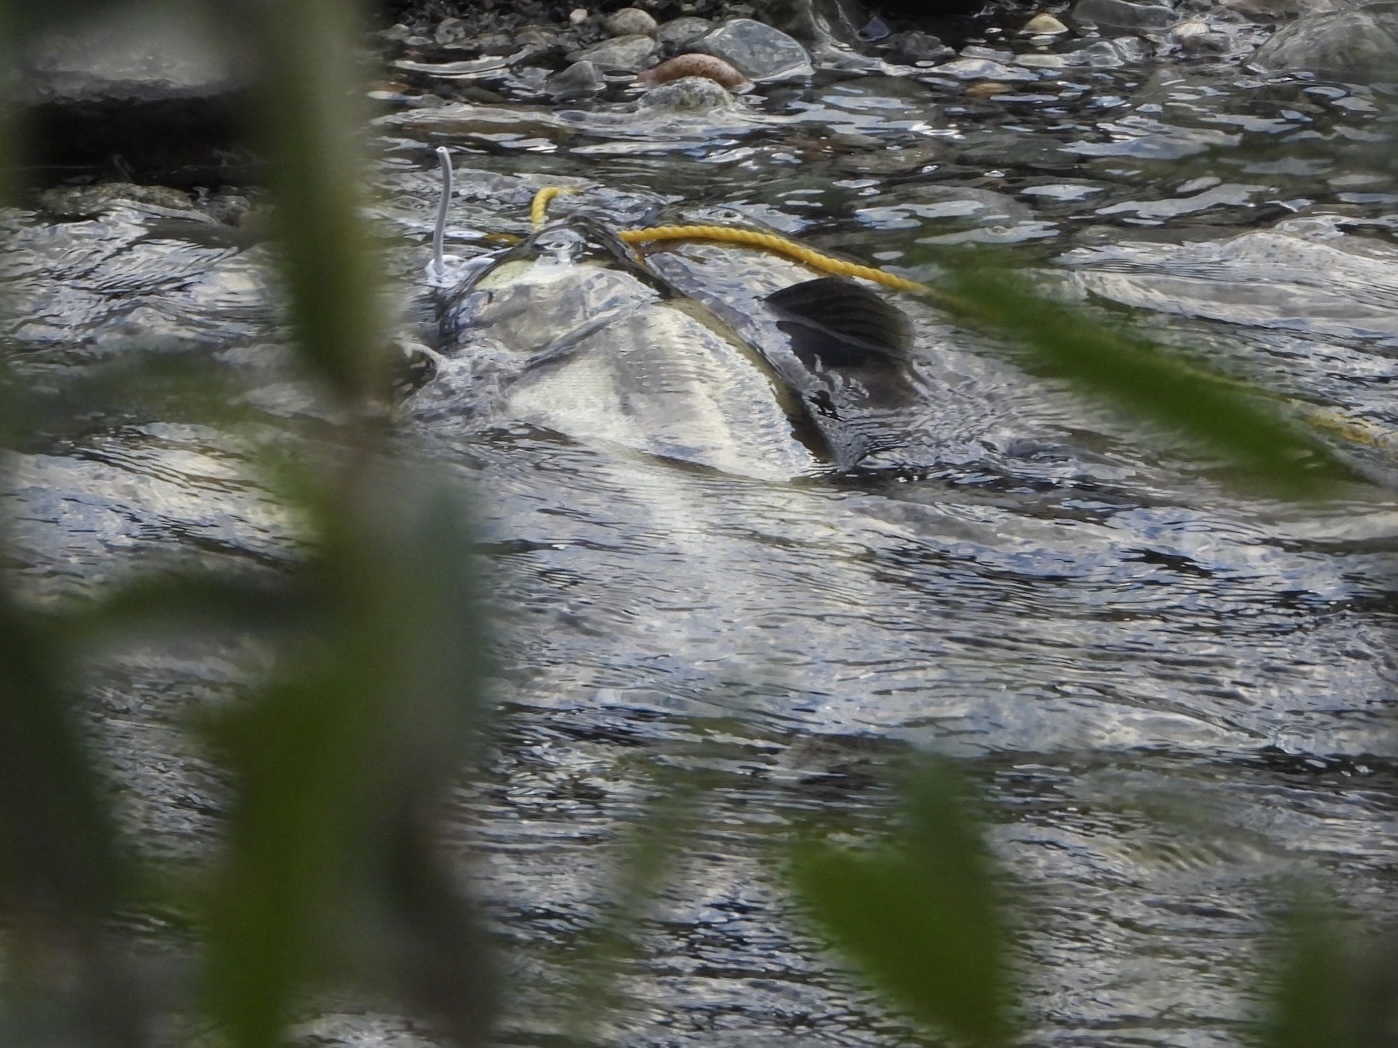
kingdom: Animalia
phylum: Chordata
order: Salmoniformes
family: Salmonidae
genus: Oncorhynchus
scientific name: Oncorhynchus keta
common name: Chum salmon
